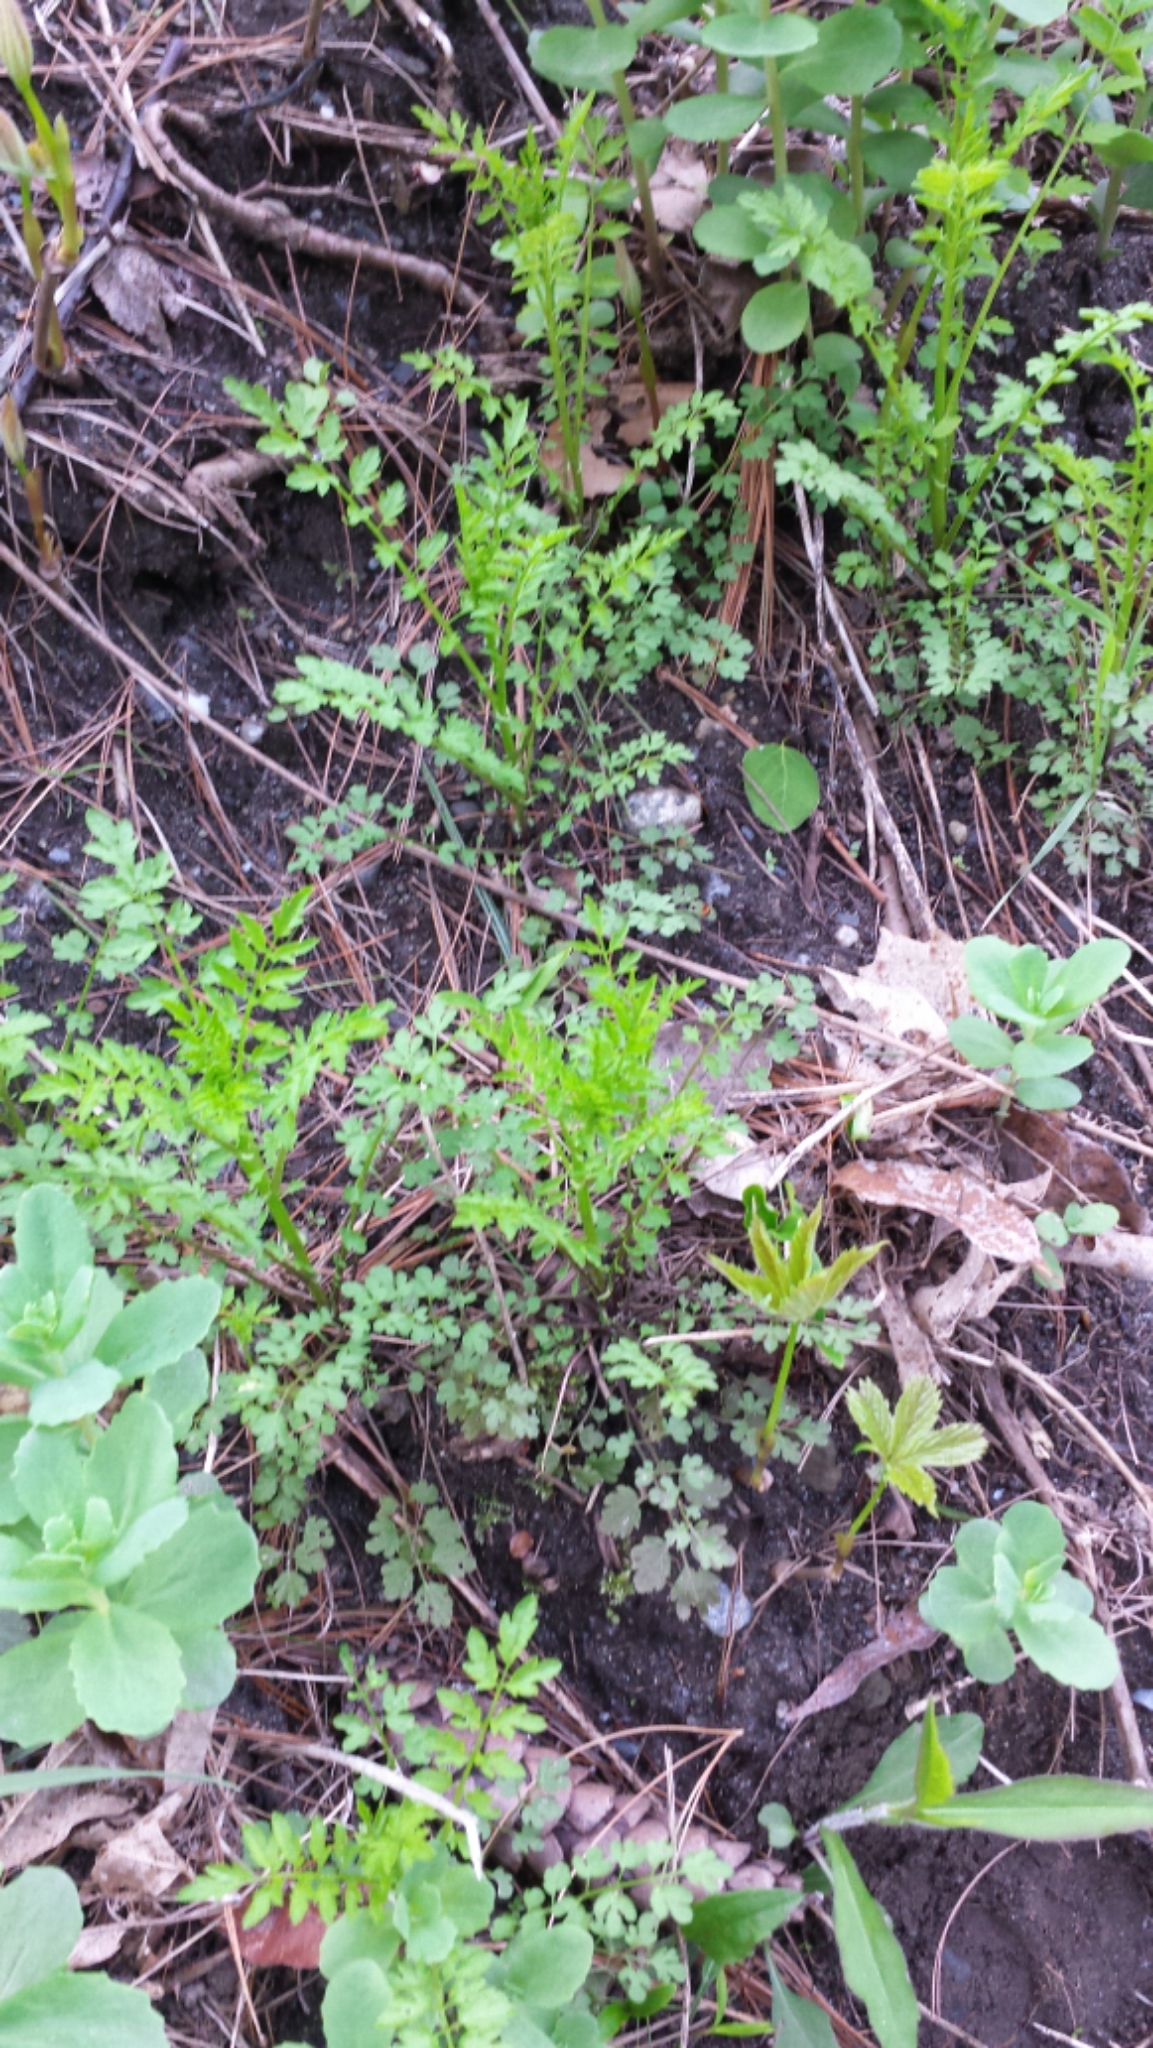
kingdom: Plantae
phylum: Tracheophyta
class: Magnoliopsida
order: Brassicales
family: Brassicaceae
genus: Cardamine
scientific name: Cardamine impatiens
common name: Narrow-leaved bitter-cress
